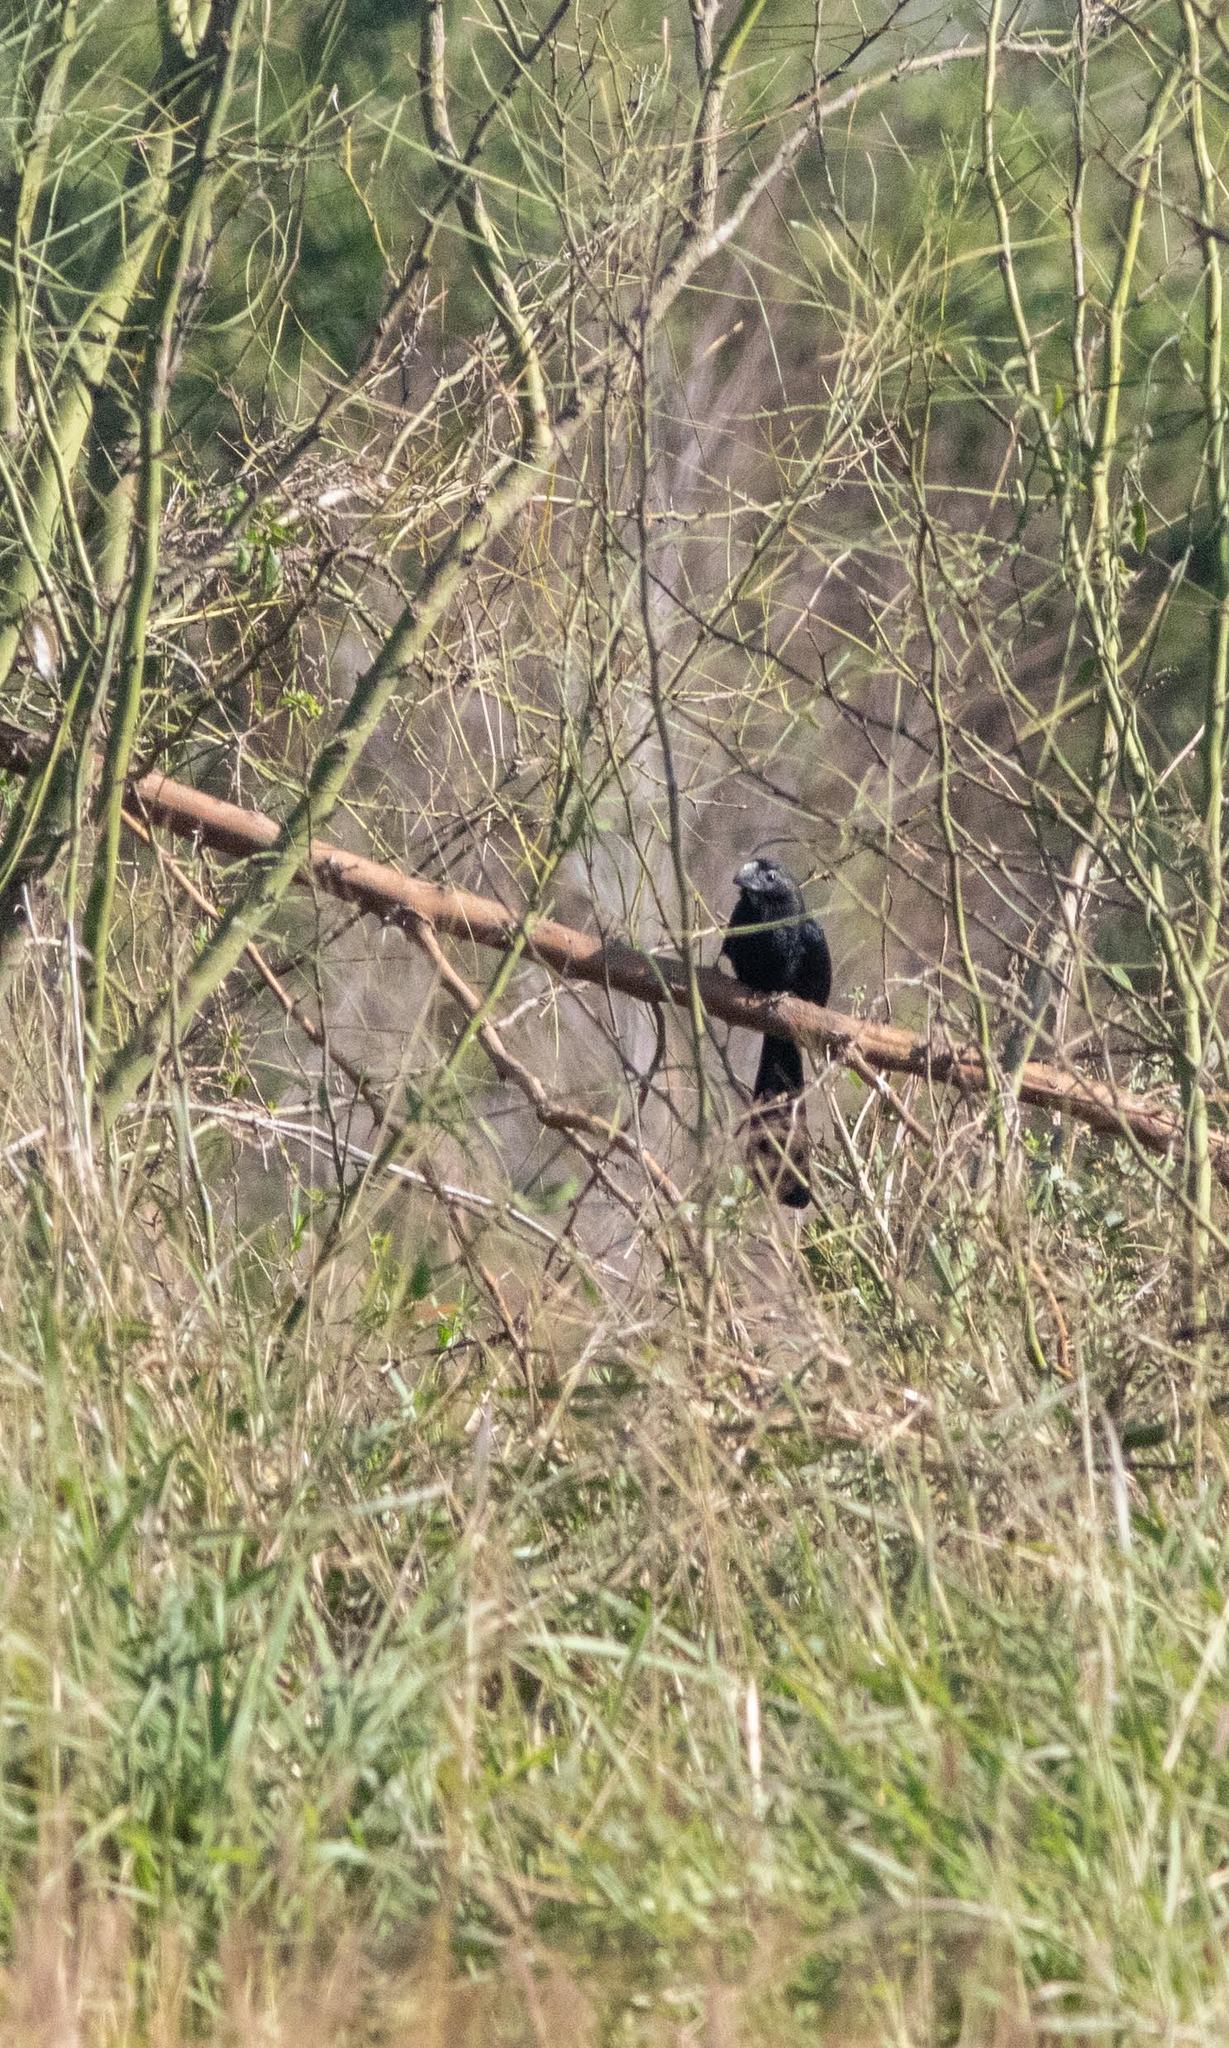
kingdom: Animalia
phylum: Chordata
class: Aves
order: Cuculiformes
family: Cuculidae
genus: Crotophaga
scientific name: Crotophaga sulcirostris
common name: Groove-billed ani
